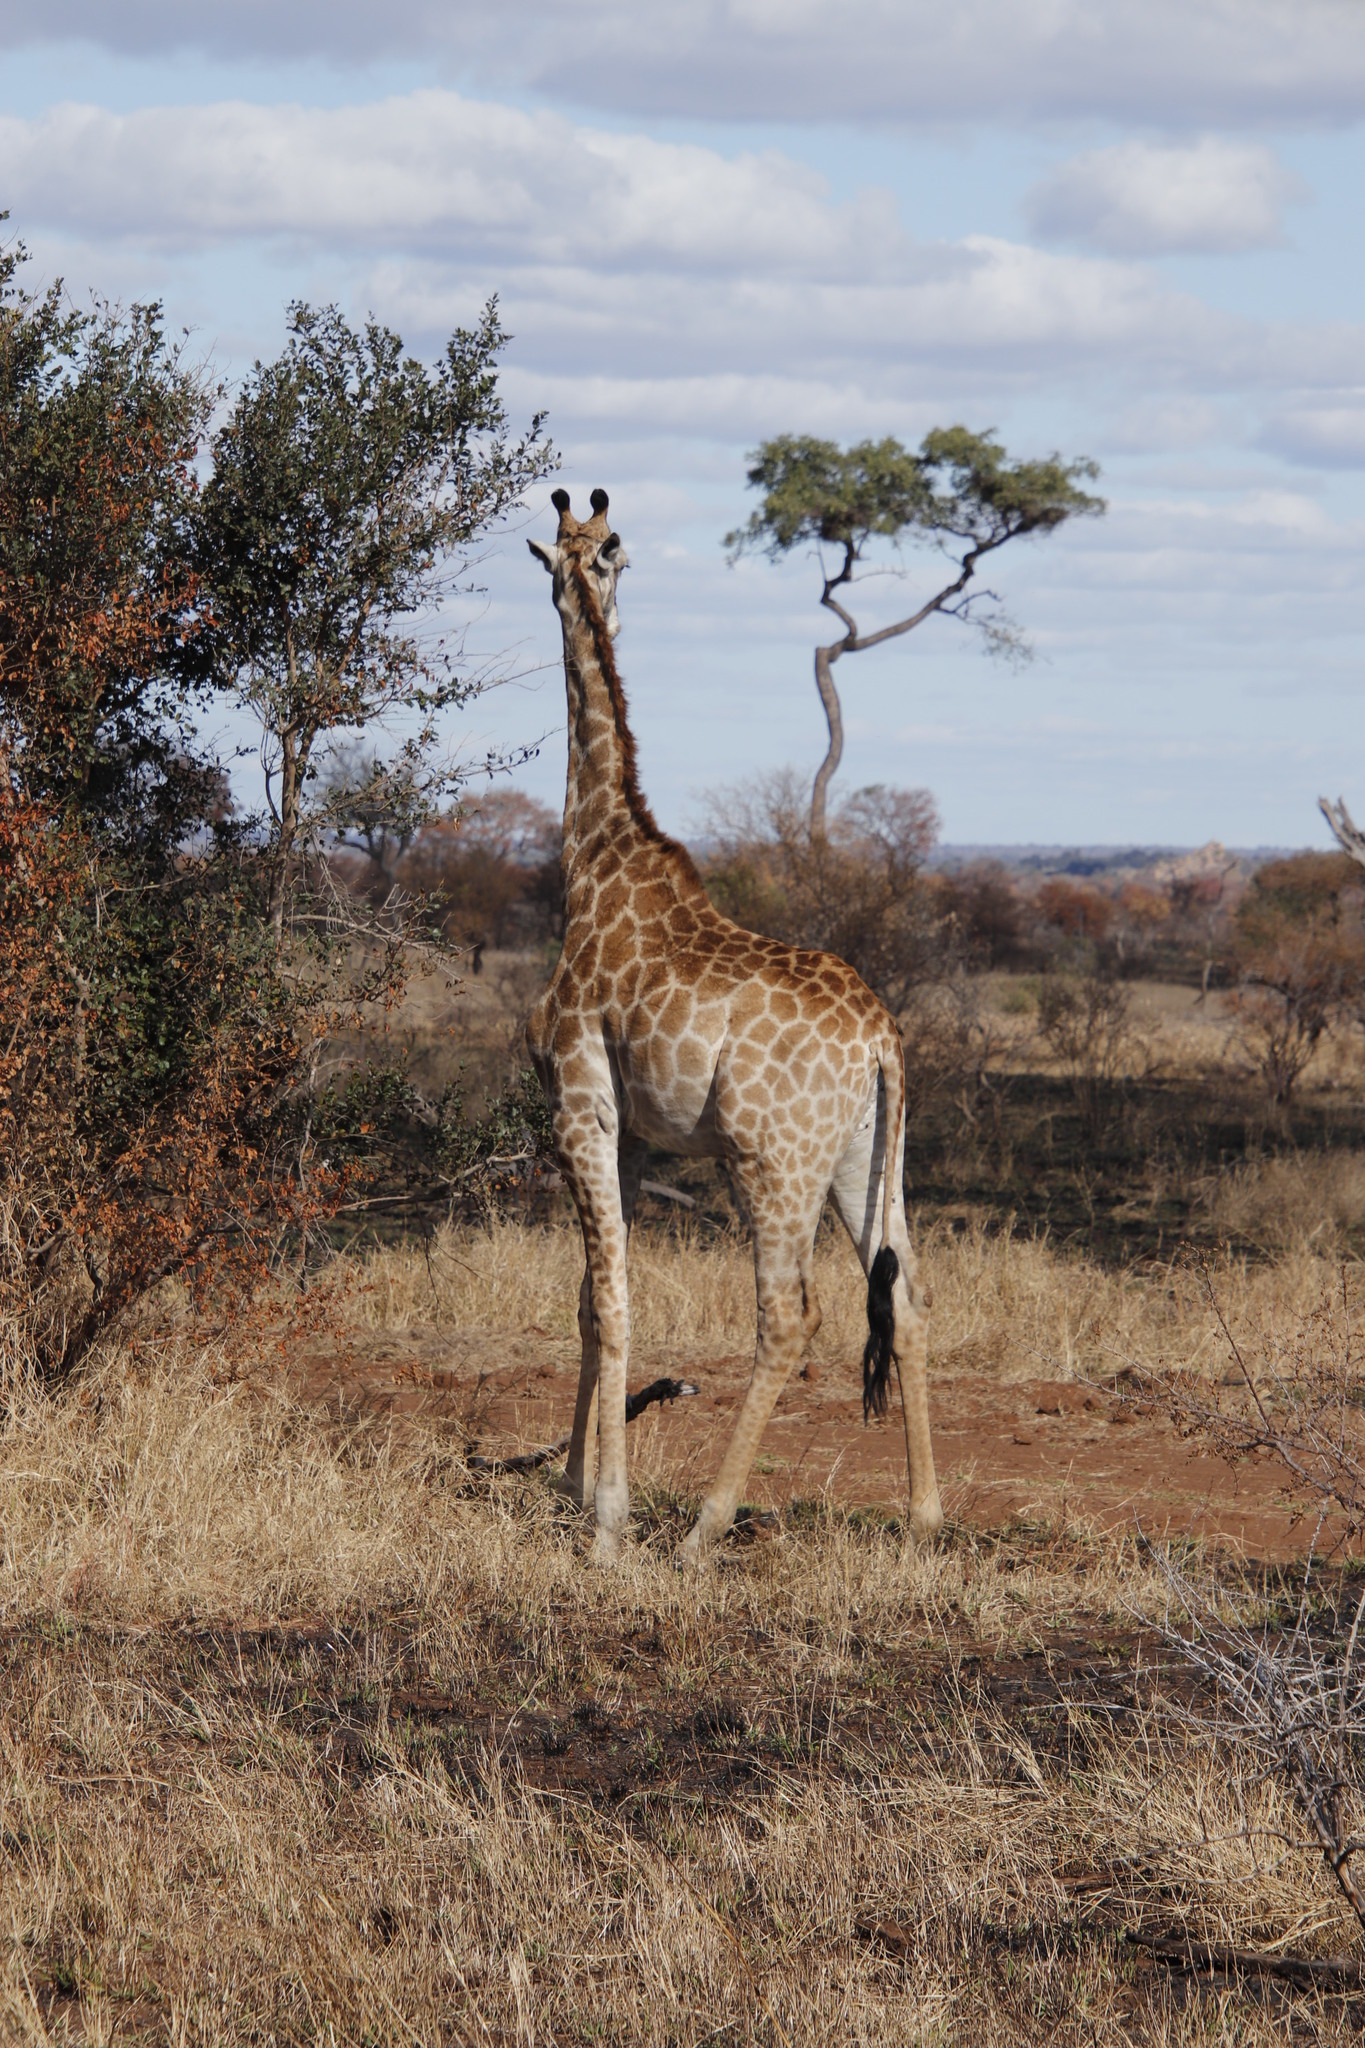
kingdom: Animalia
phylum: Chordata
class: Mammalia
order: Artiodactyla
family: Giraffidae
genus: Giraffa
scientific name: Giraffa giraffa
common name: Southern giraffe
